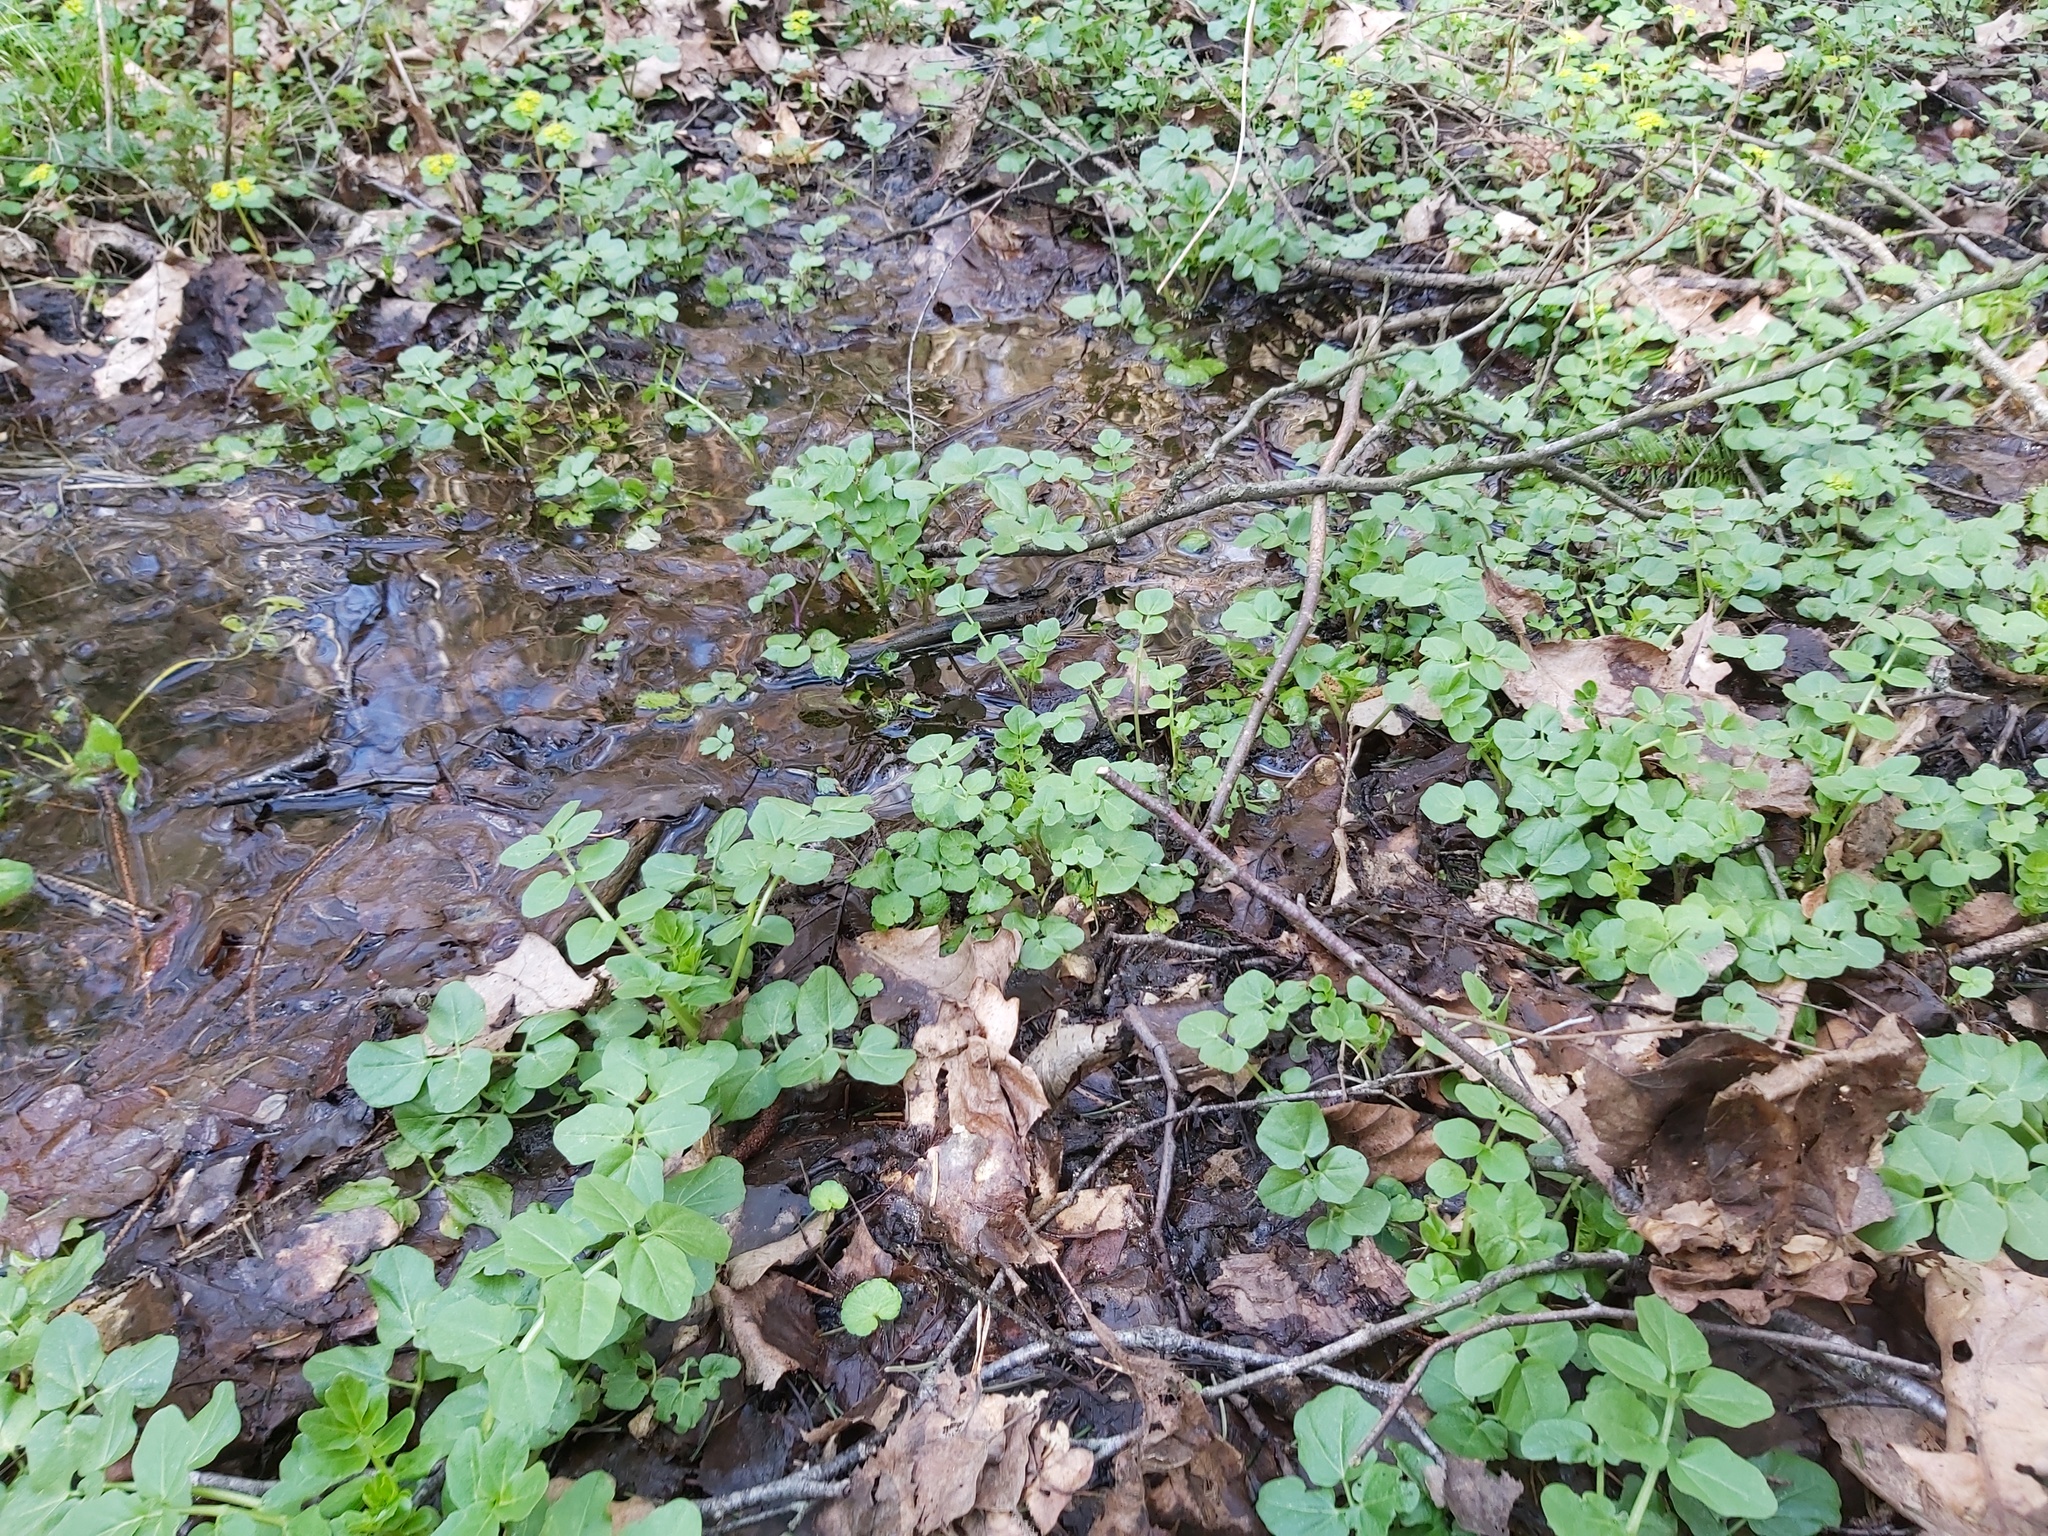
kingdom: Plantae
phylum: Tracheophyta
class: Magnoliopsida
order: Brassicales
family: Brassicaceae
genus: Cardamine
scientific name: Cardamine amara
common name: Large bitter-cress
